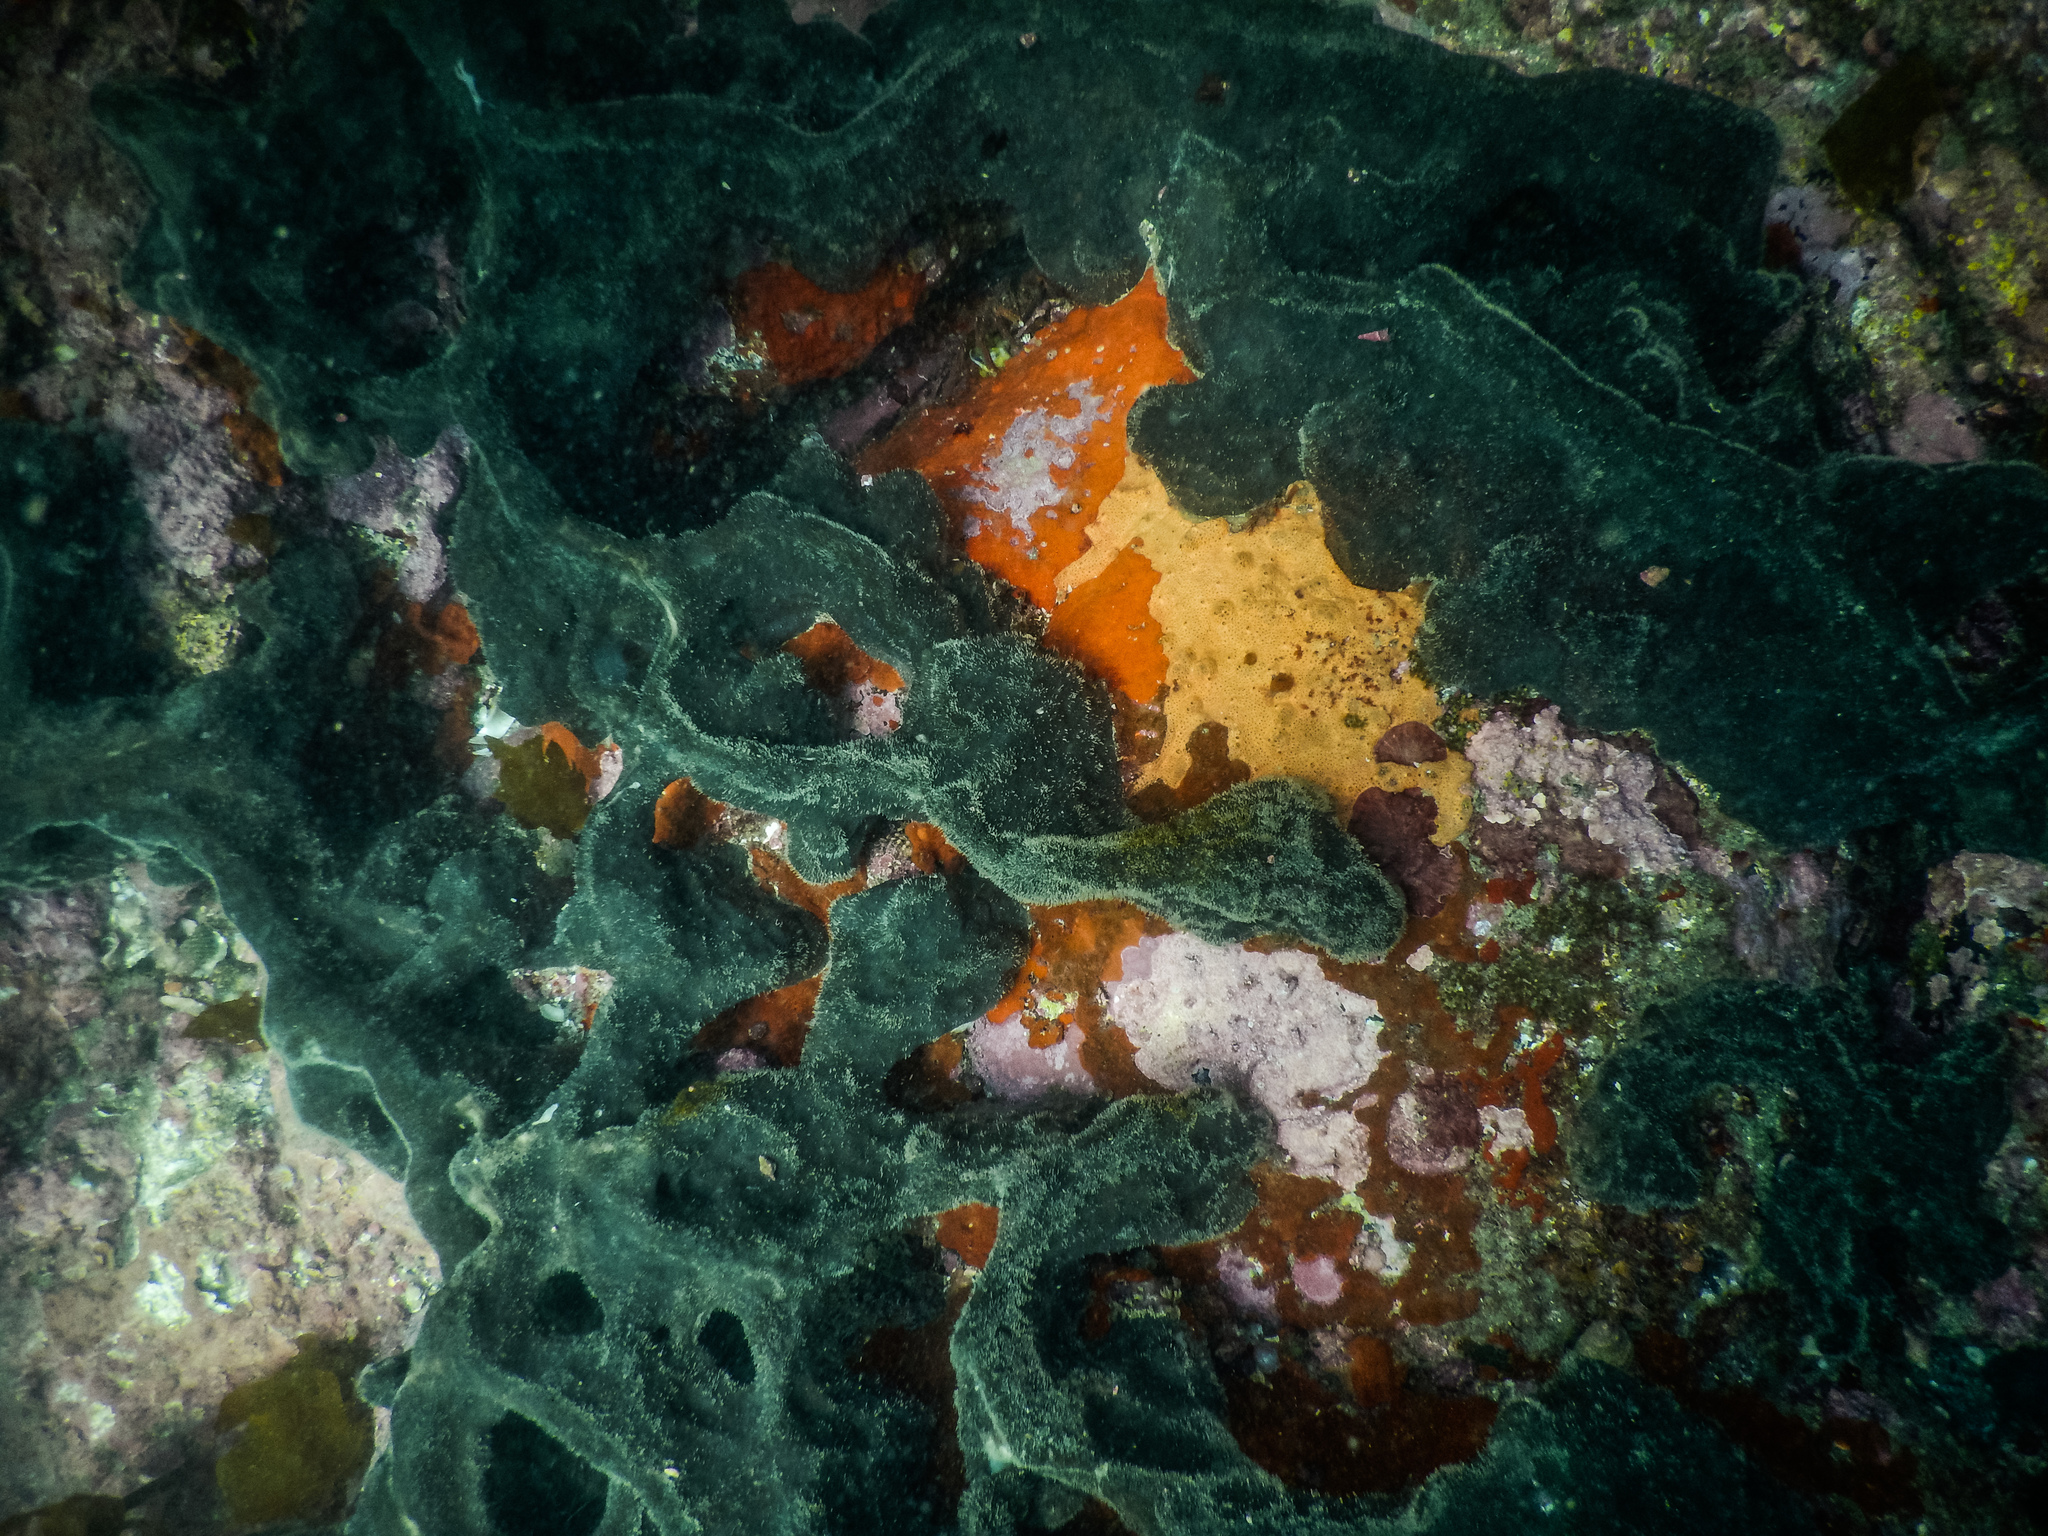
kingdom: Animalia
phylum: Porifera
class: Demospongiae
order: Tetractinellida
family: Ancorinidae
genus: Stelletta
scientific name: Stelletta conulosa
